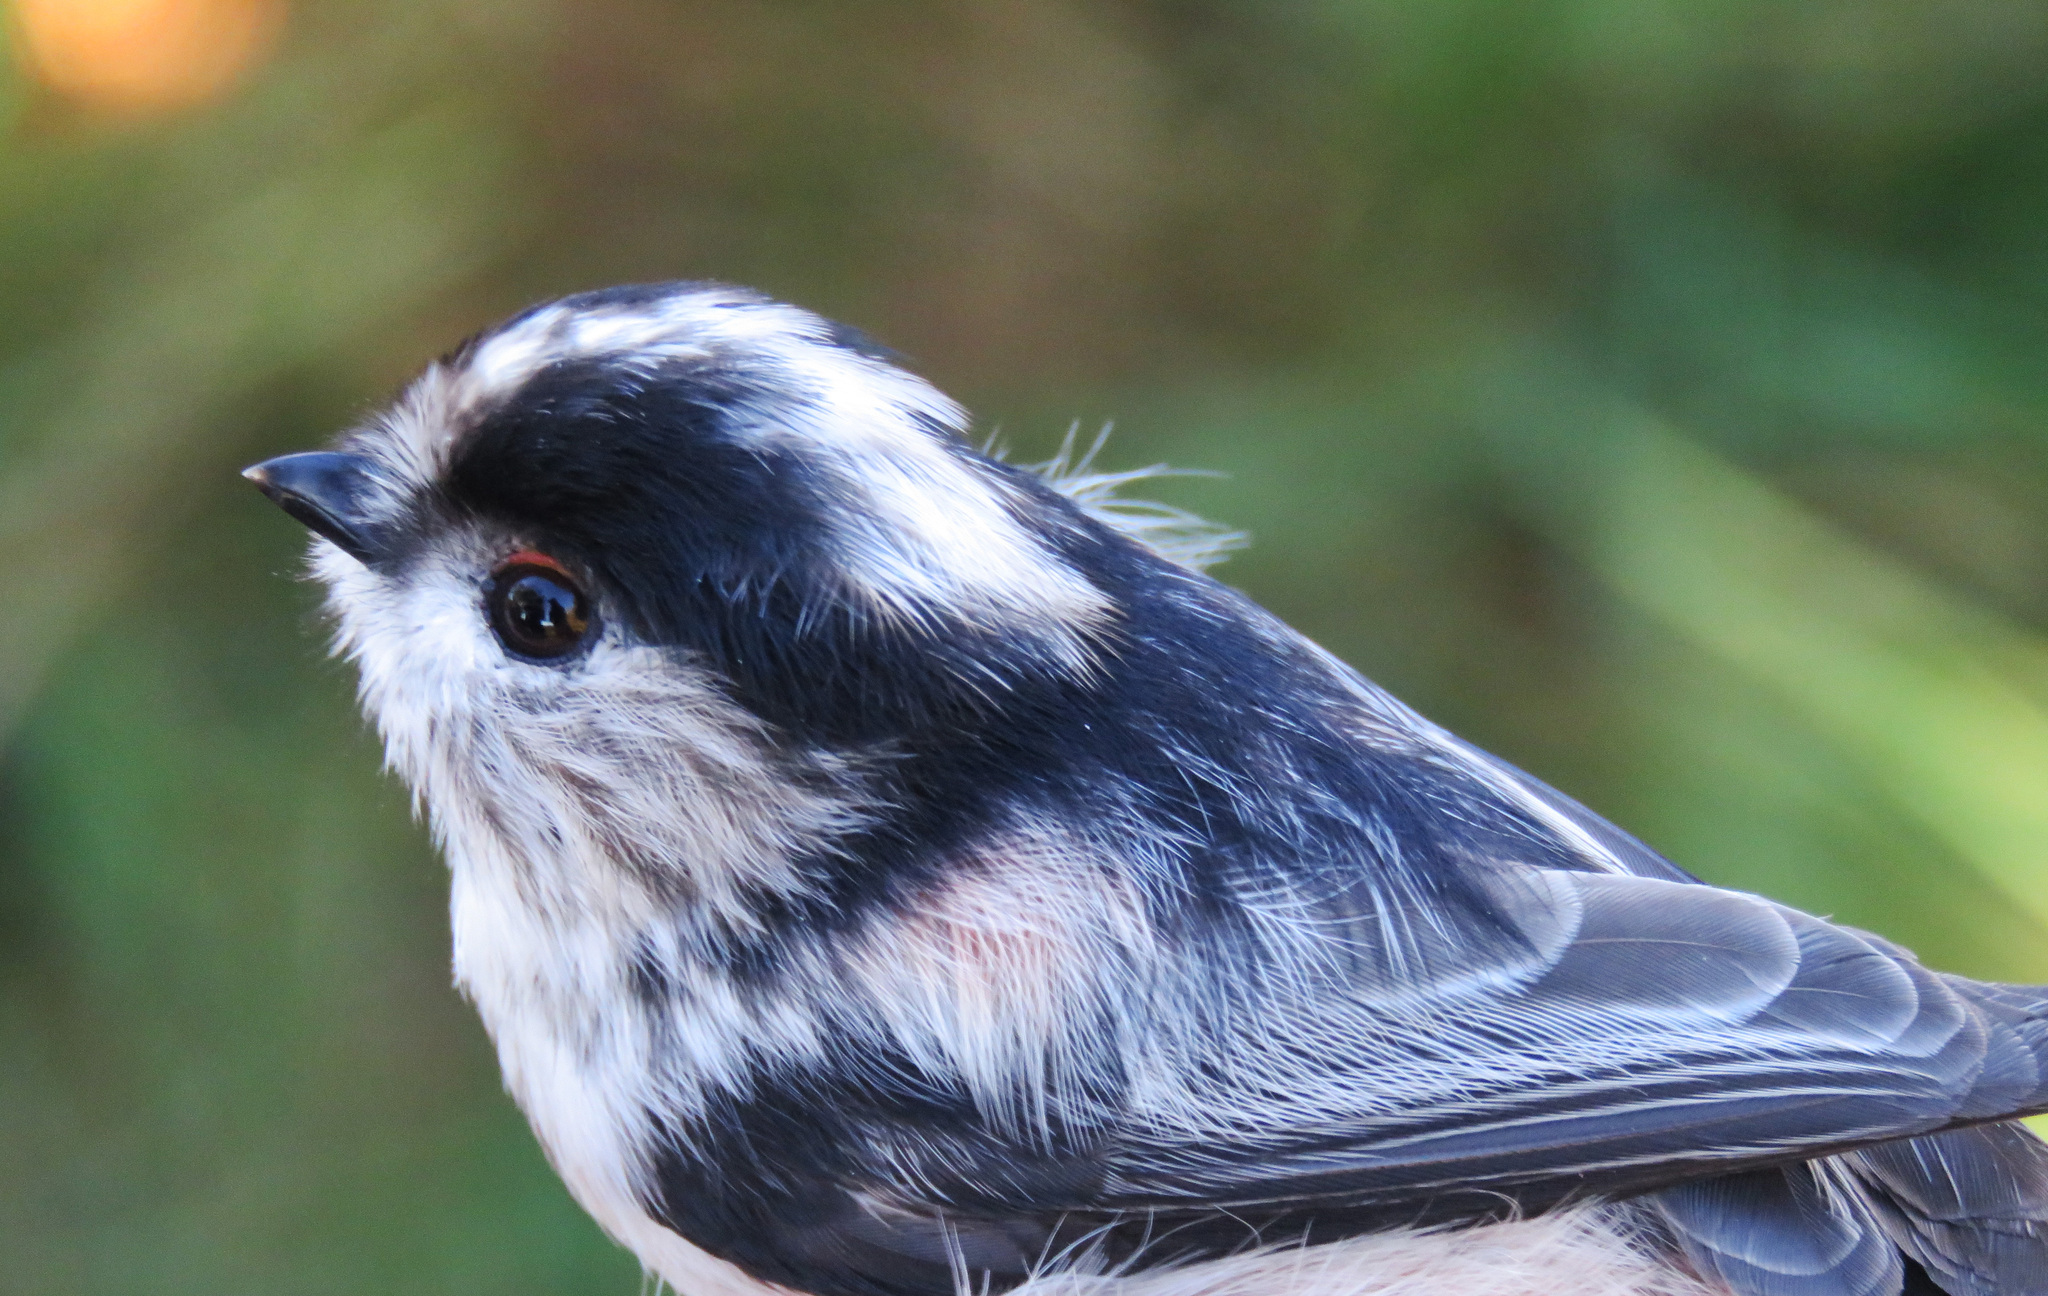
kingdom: Animalia
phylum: Chordata
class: Aves
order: Passeriformes
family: Aegithalidae
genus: Aegithalos
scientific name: Aegithalos caudatus
